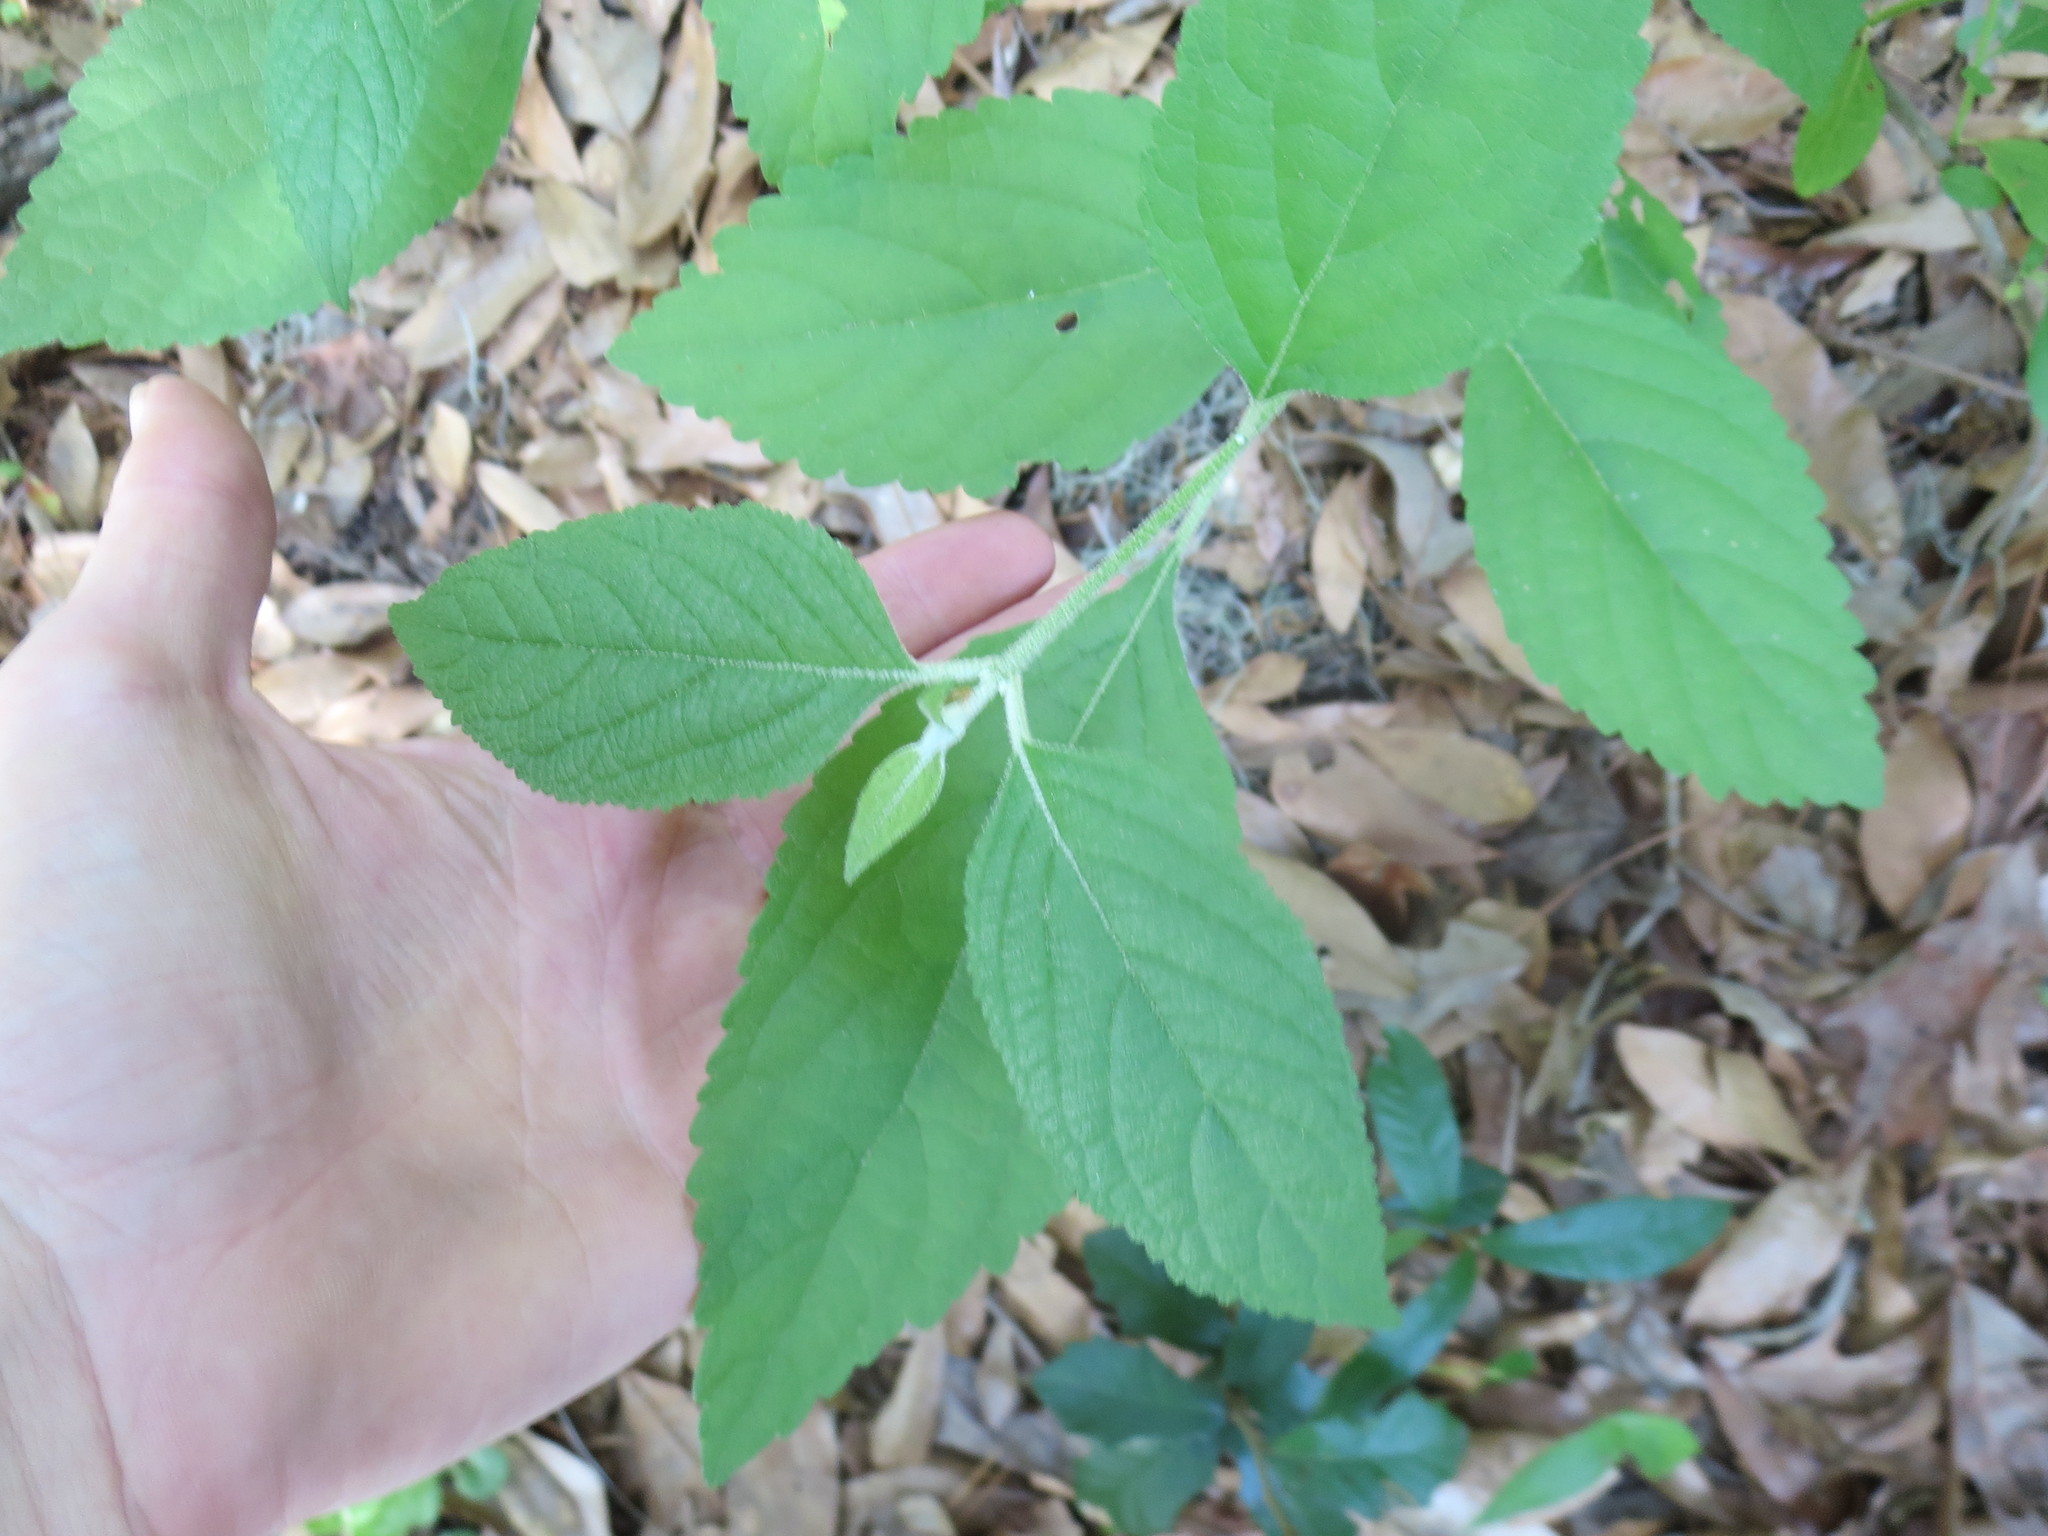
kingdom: Plantae
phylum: Tracheophyta
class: Magnoliopsida
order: Lamiales
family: Lamiaceae
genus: Callicarpa
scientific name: Callicarpa americana
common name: American beautyberry
